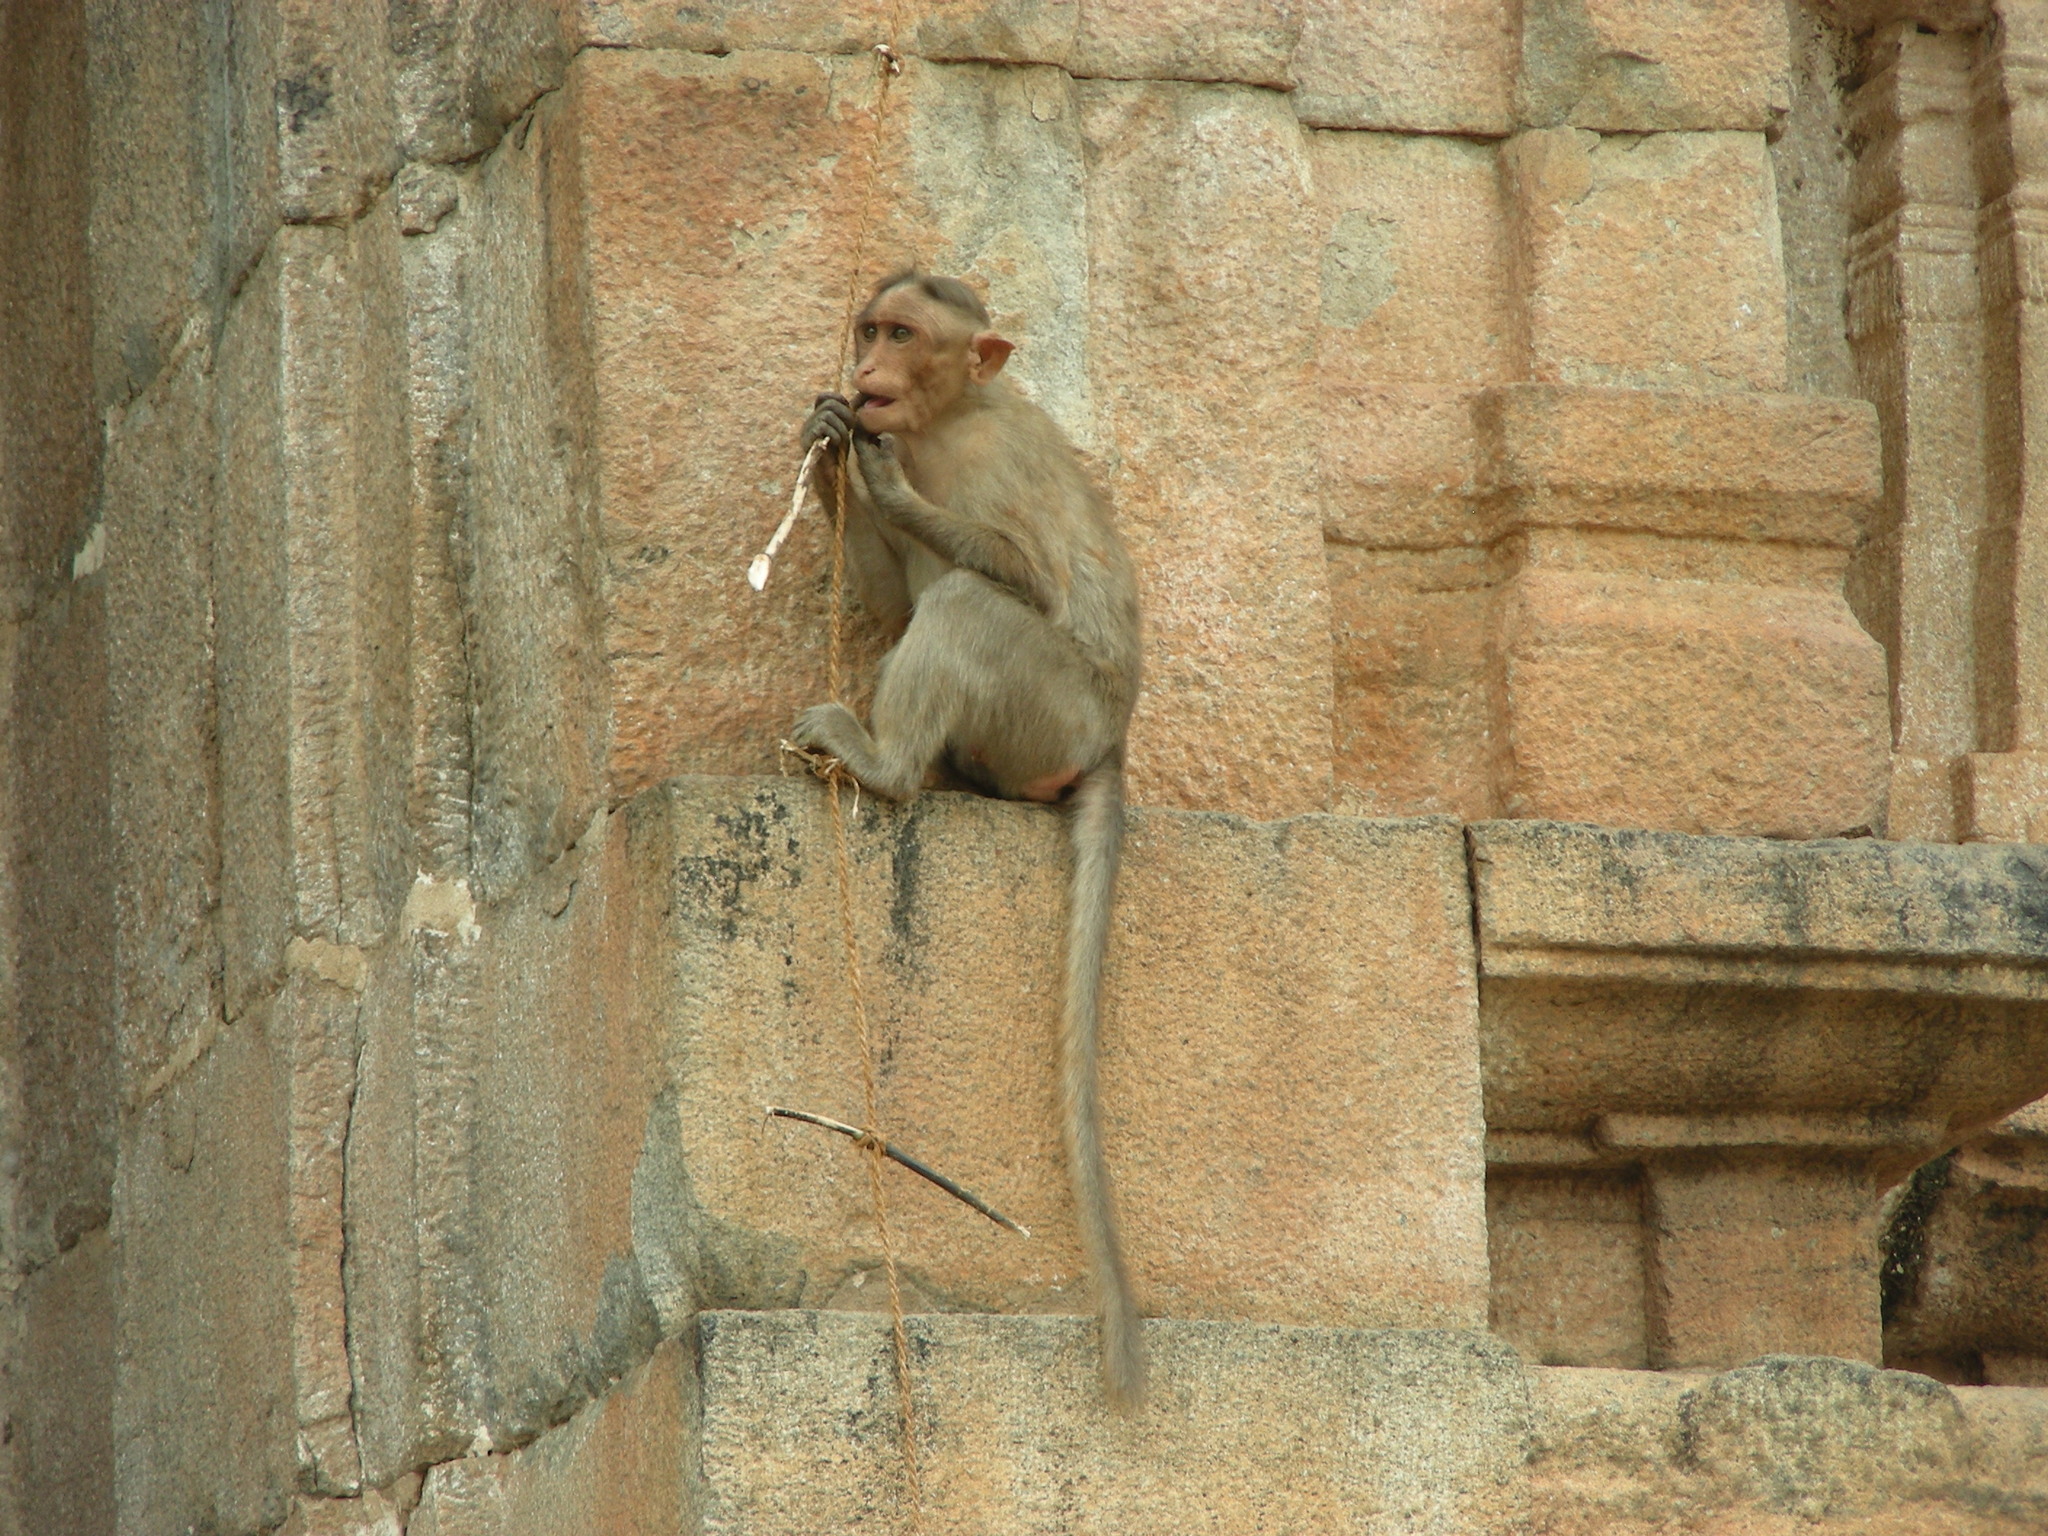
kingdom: Animalia
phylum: Chordata
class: Mammalia
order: Primates
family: Cercopithecidae
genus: Macaca
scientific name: Macaca radiata
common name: Bonnet macaque
